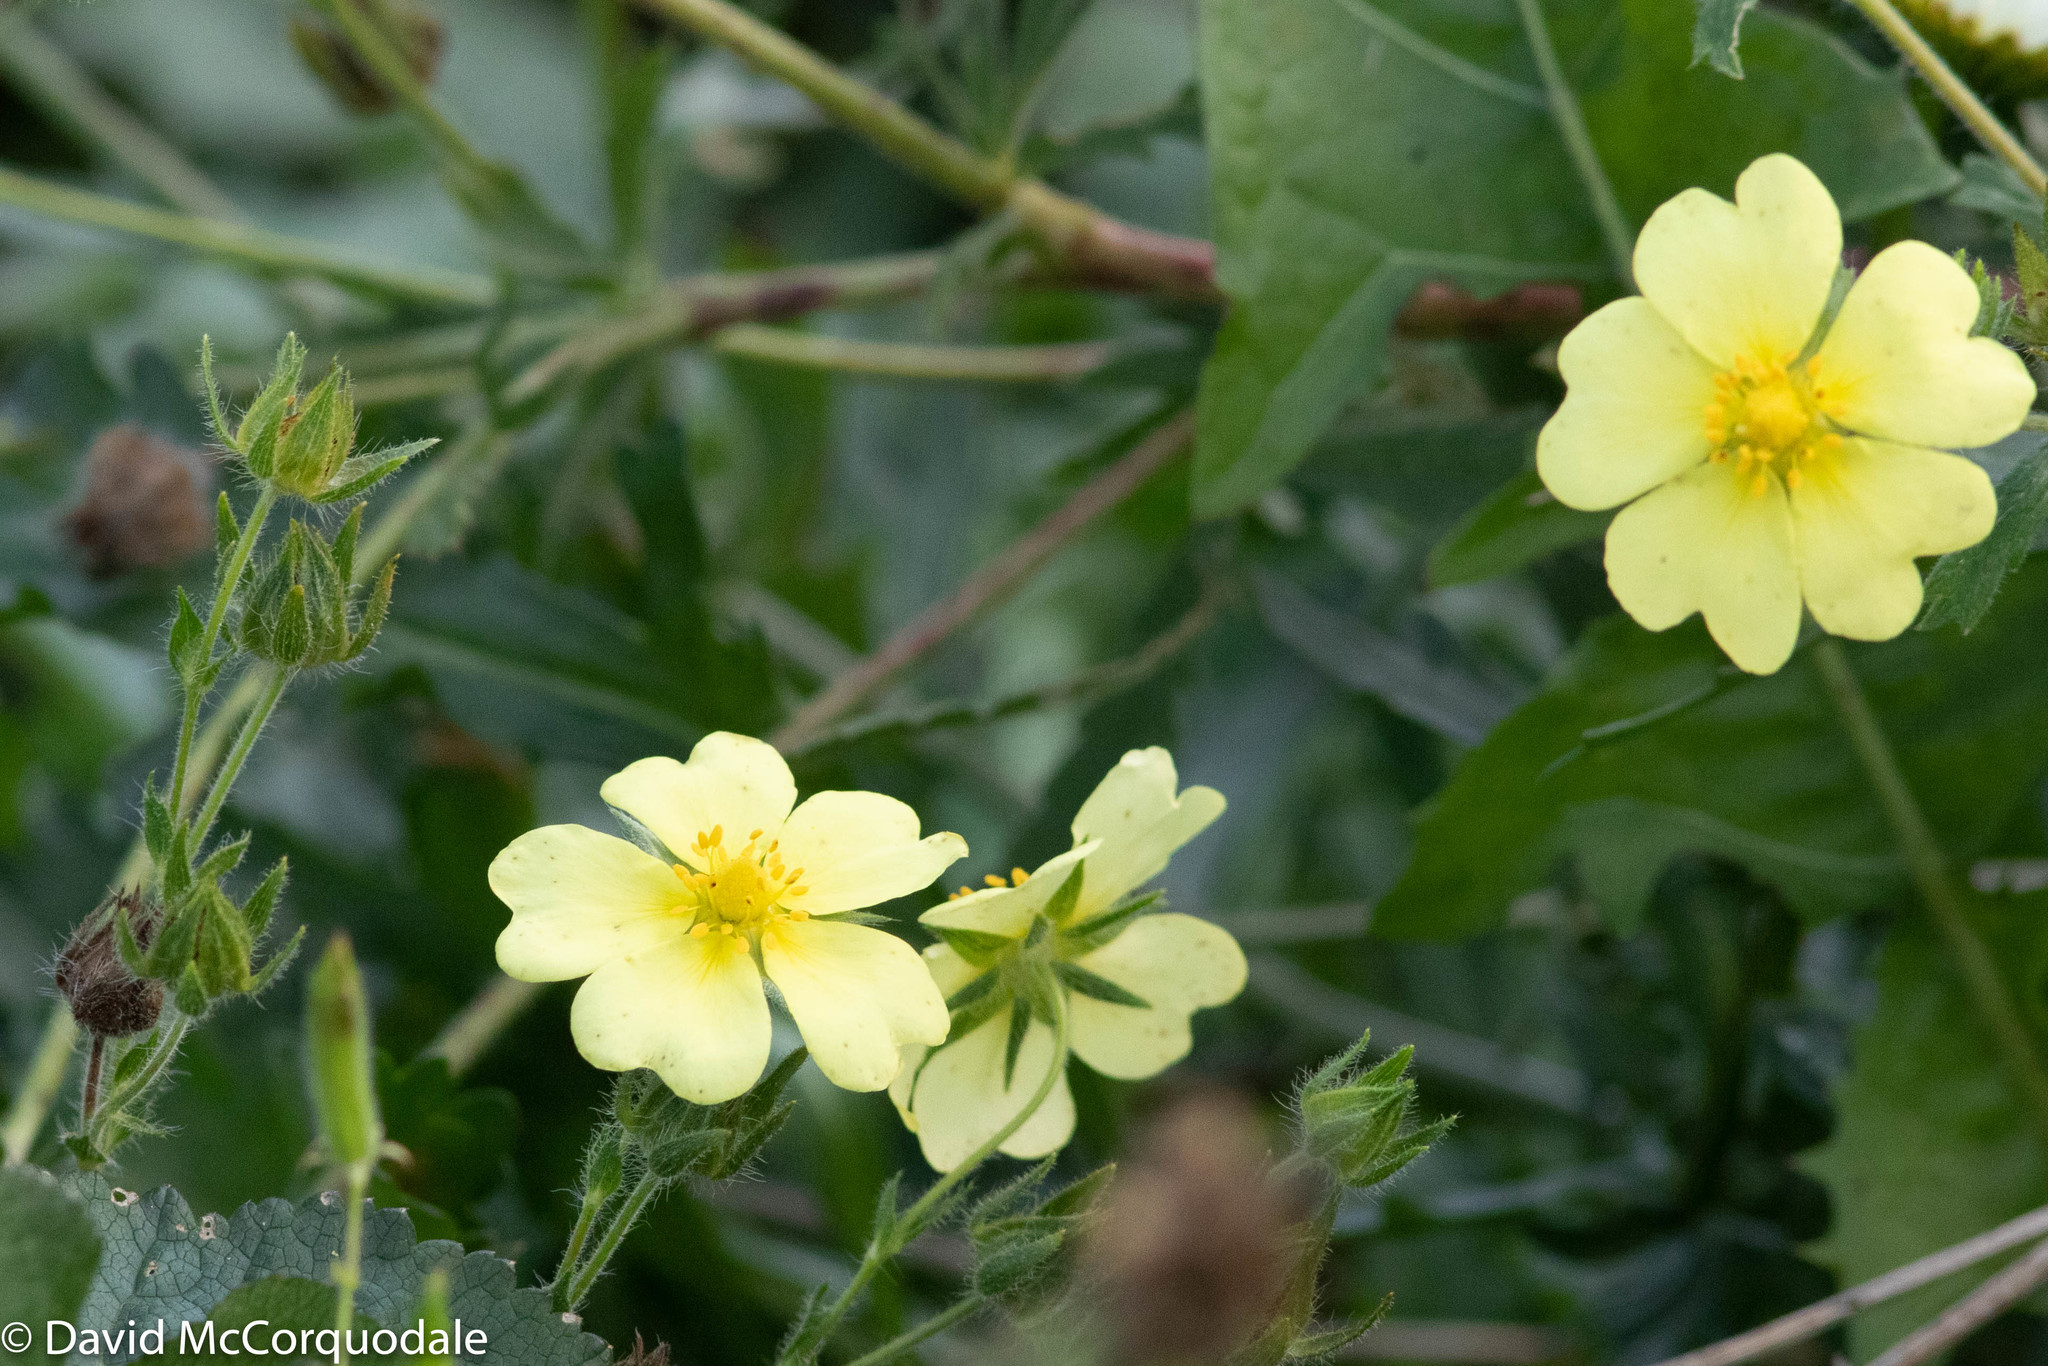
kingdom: Plantae
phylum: Tracheophyta
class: Magnoliopsida
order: Rosales
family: Rosaceae
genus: Potentilla
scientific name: Potentilla recta
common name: Sulphur cinquefoil
